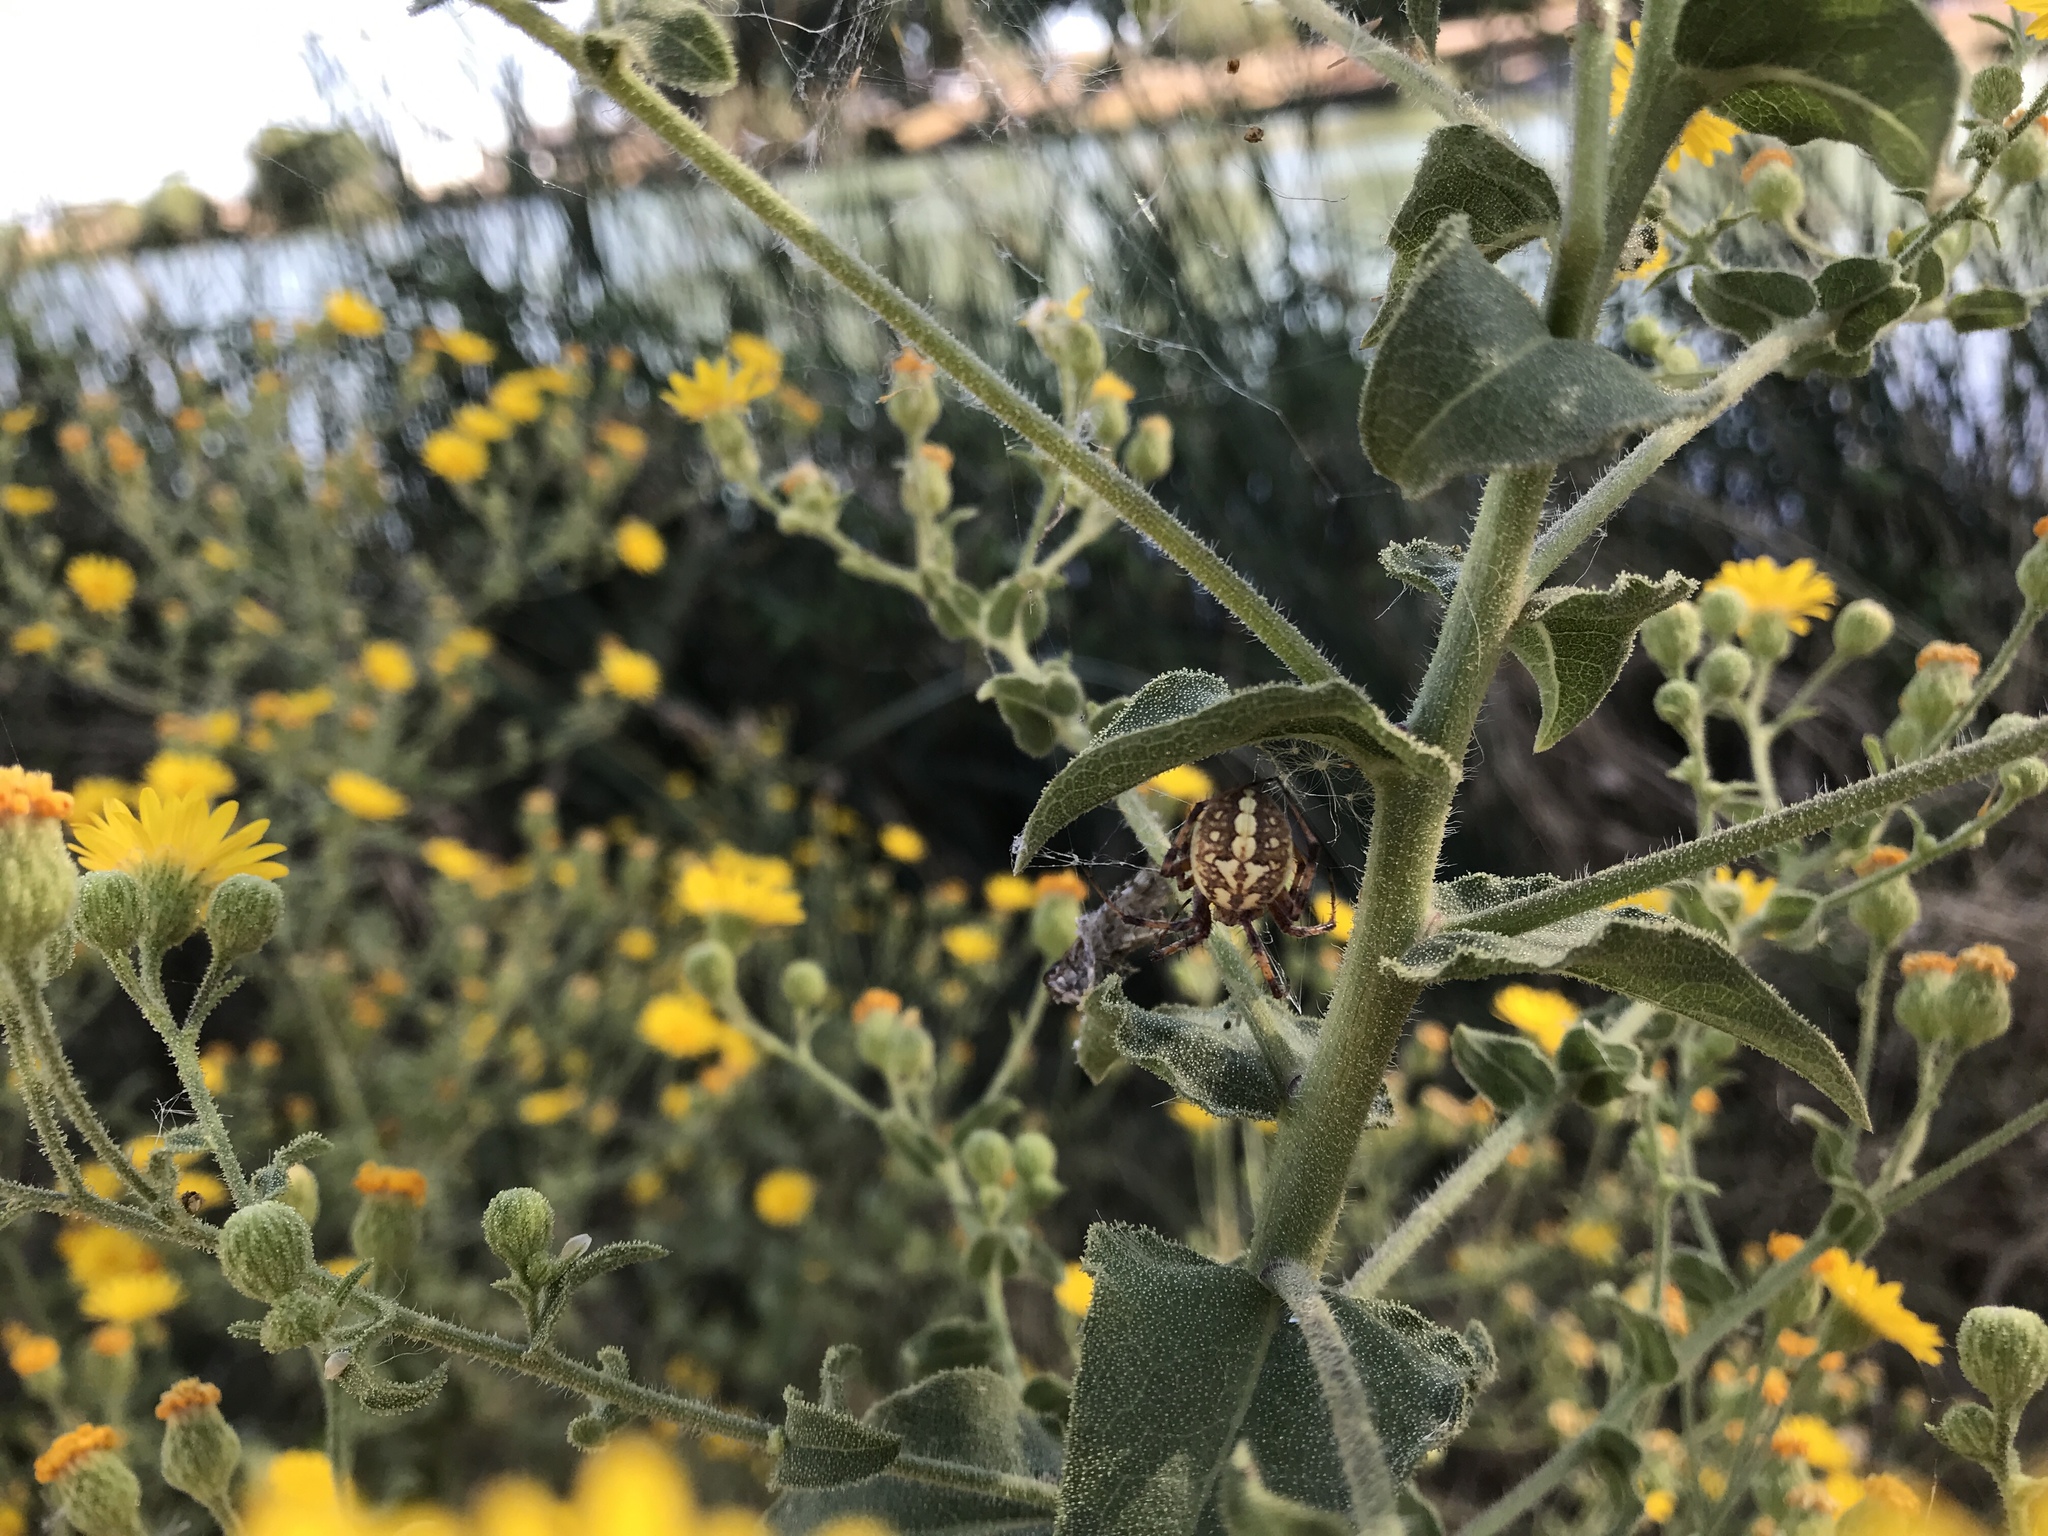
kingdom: Plantae
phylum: Tracheophyta
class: Magnoliopsida
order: Asterales
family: Asteraceae
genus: Heterotheca
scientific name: Heterotheca grandiflora
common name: Telegraphweed
